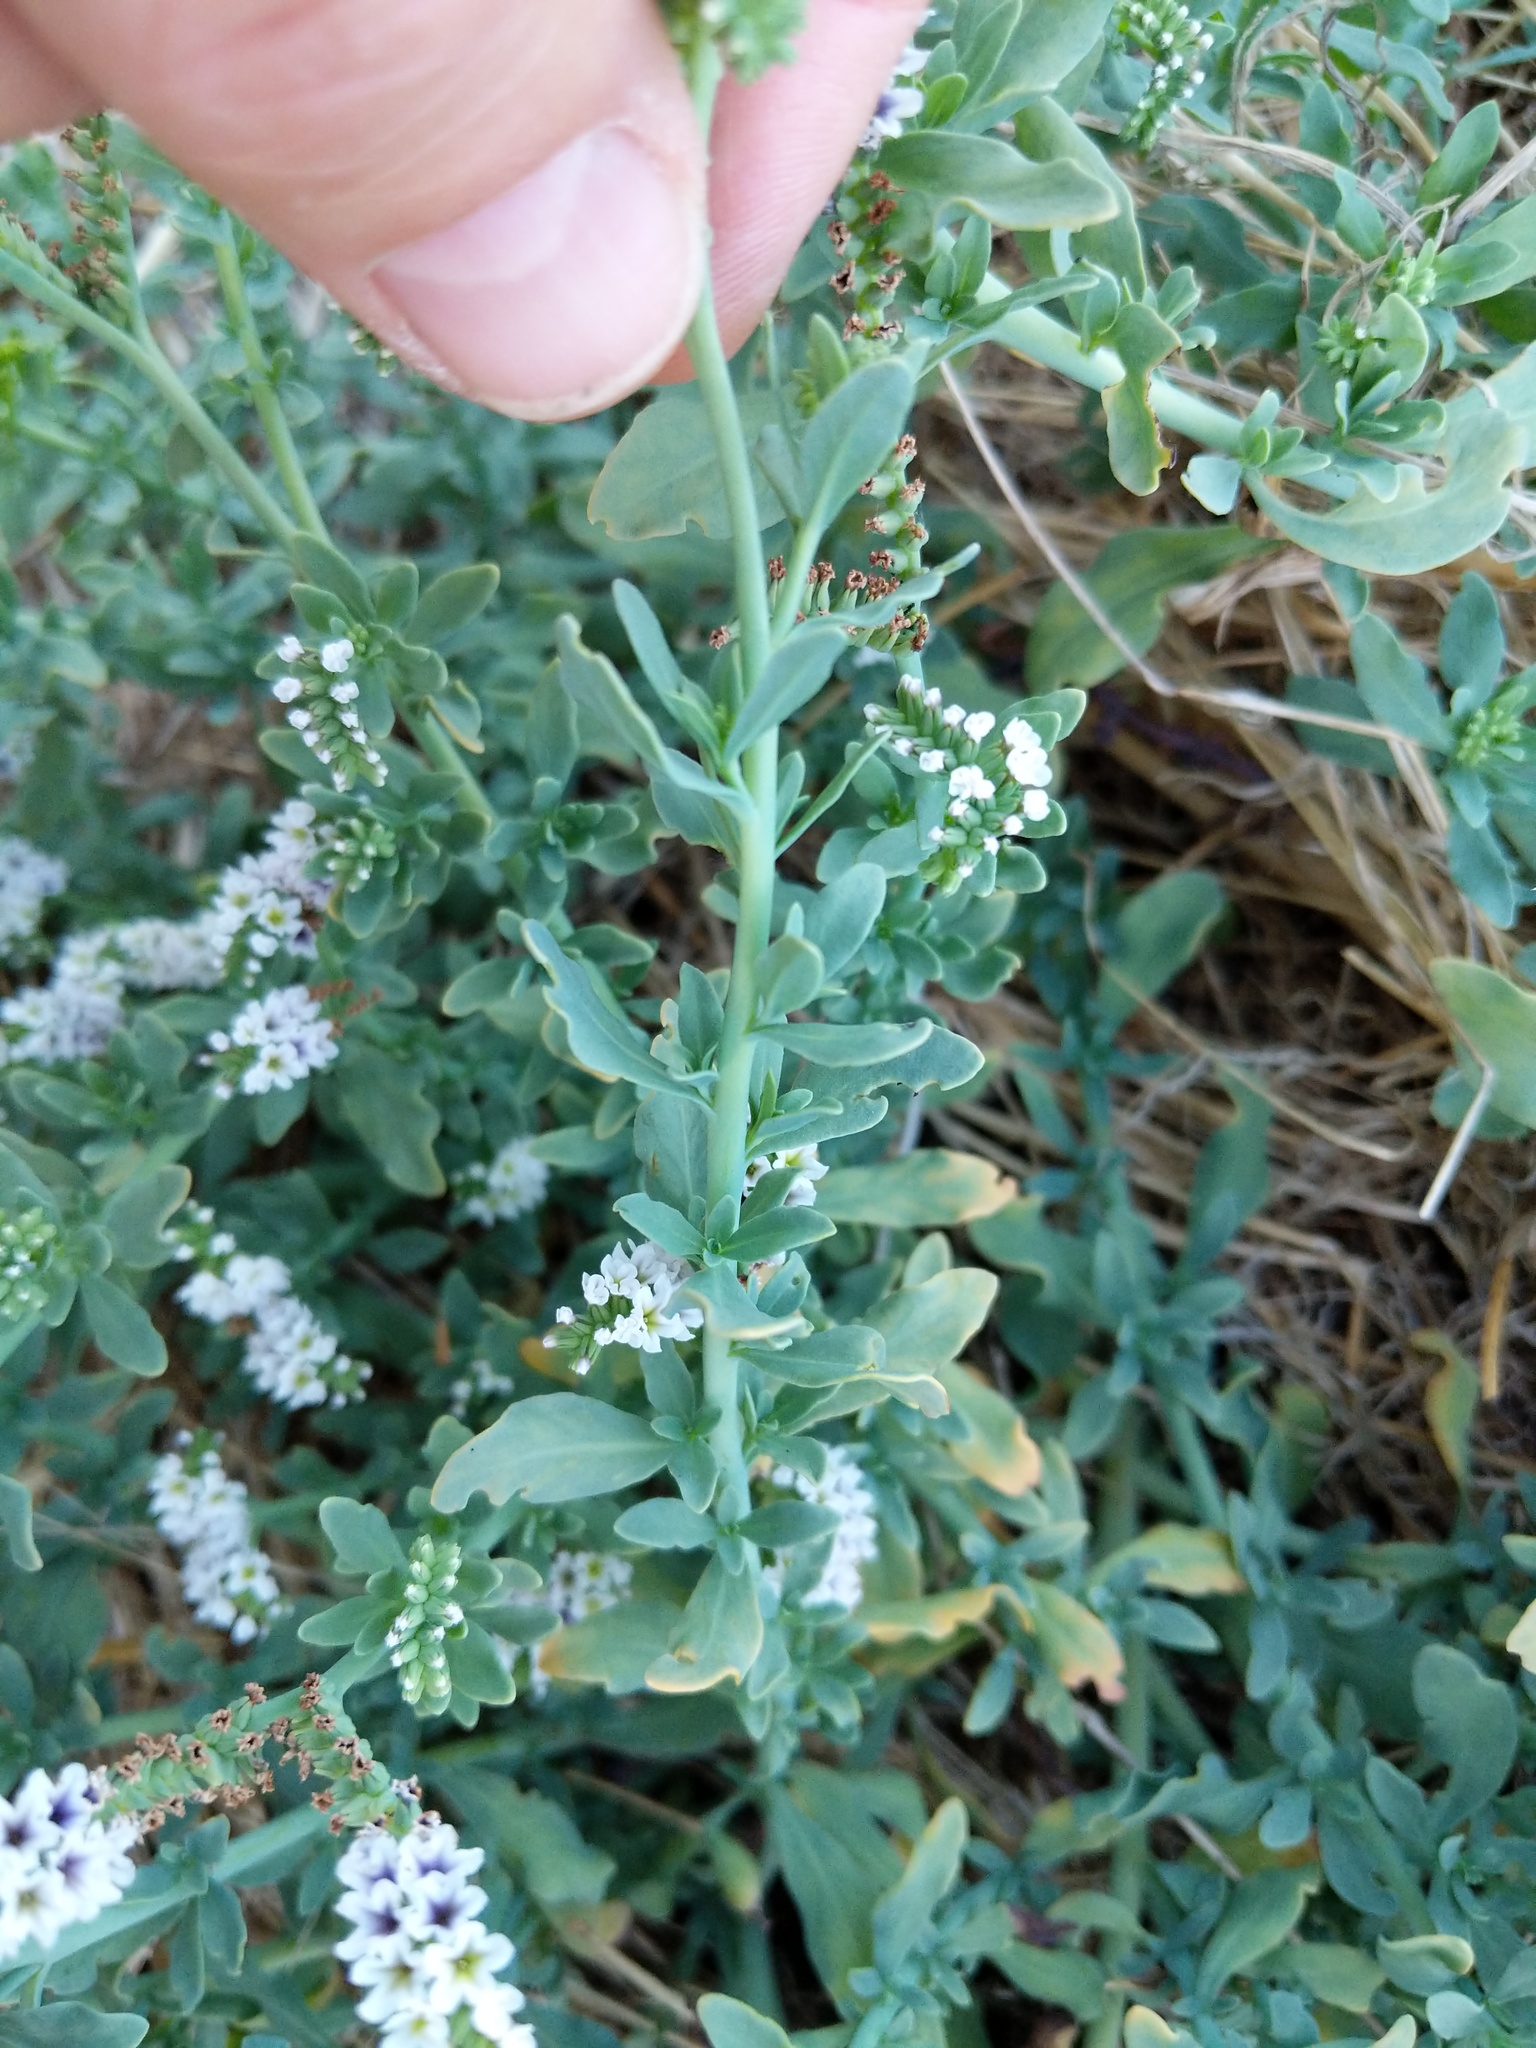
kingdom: Plantae
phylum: Tracheophyta
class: Magnoliopsida
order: Boraginales
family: Heliotropiaceae
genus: Heliotropium
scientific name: Heliotropium curassavicum
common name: Seaside heliotrope
